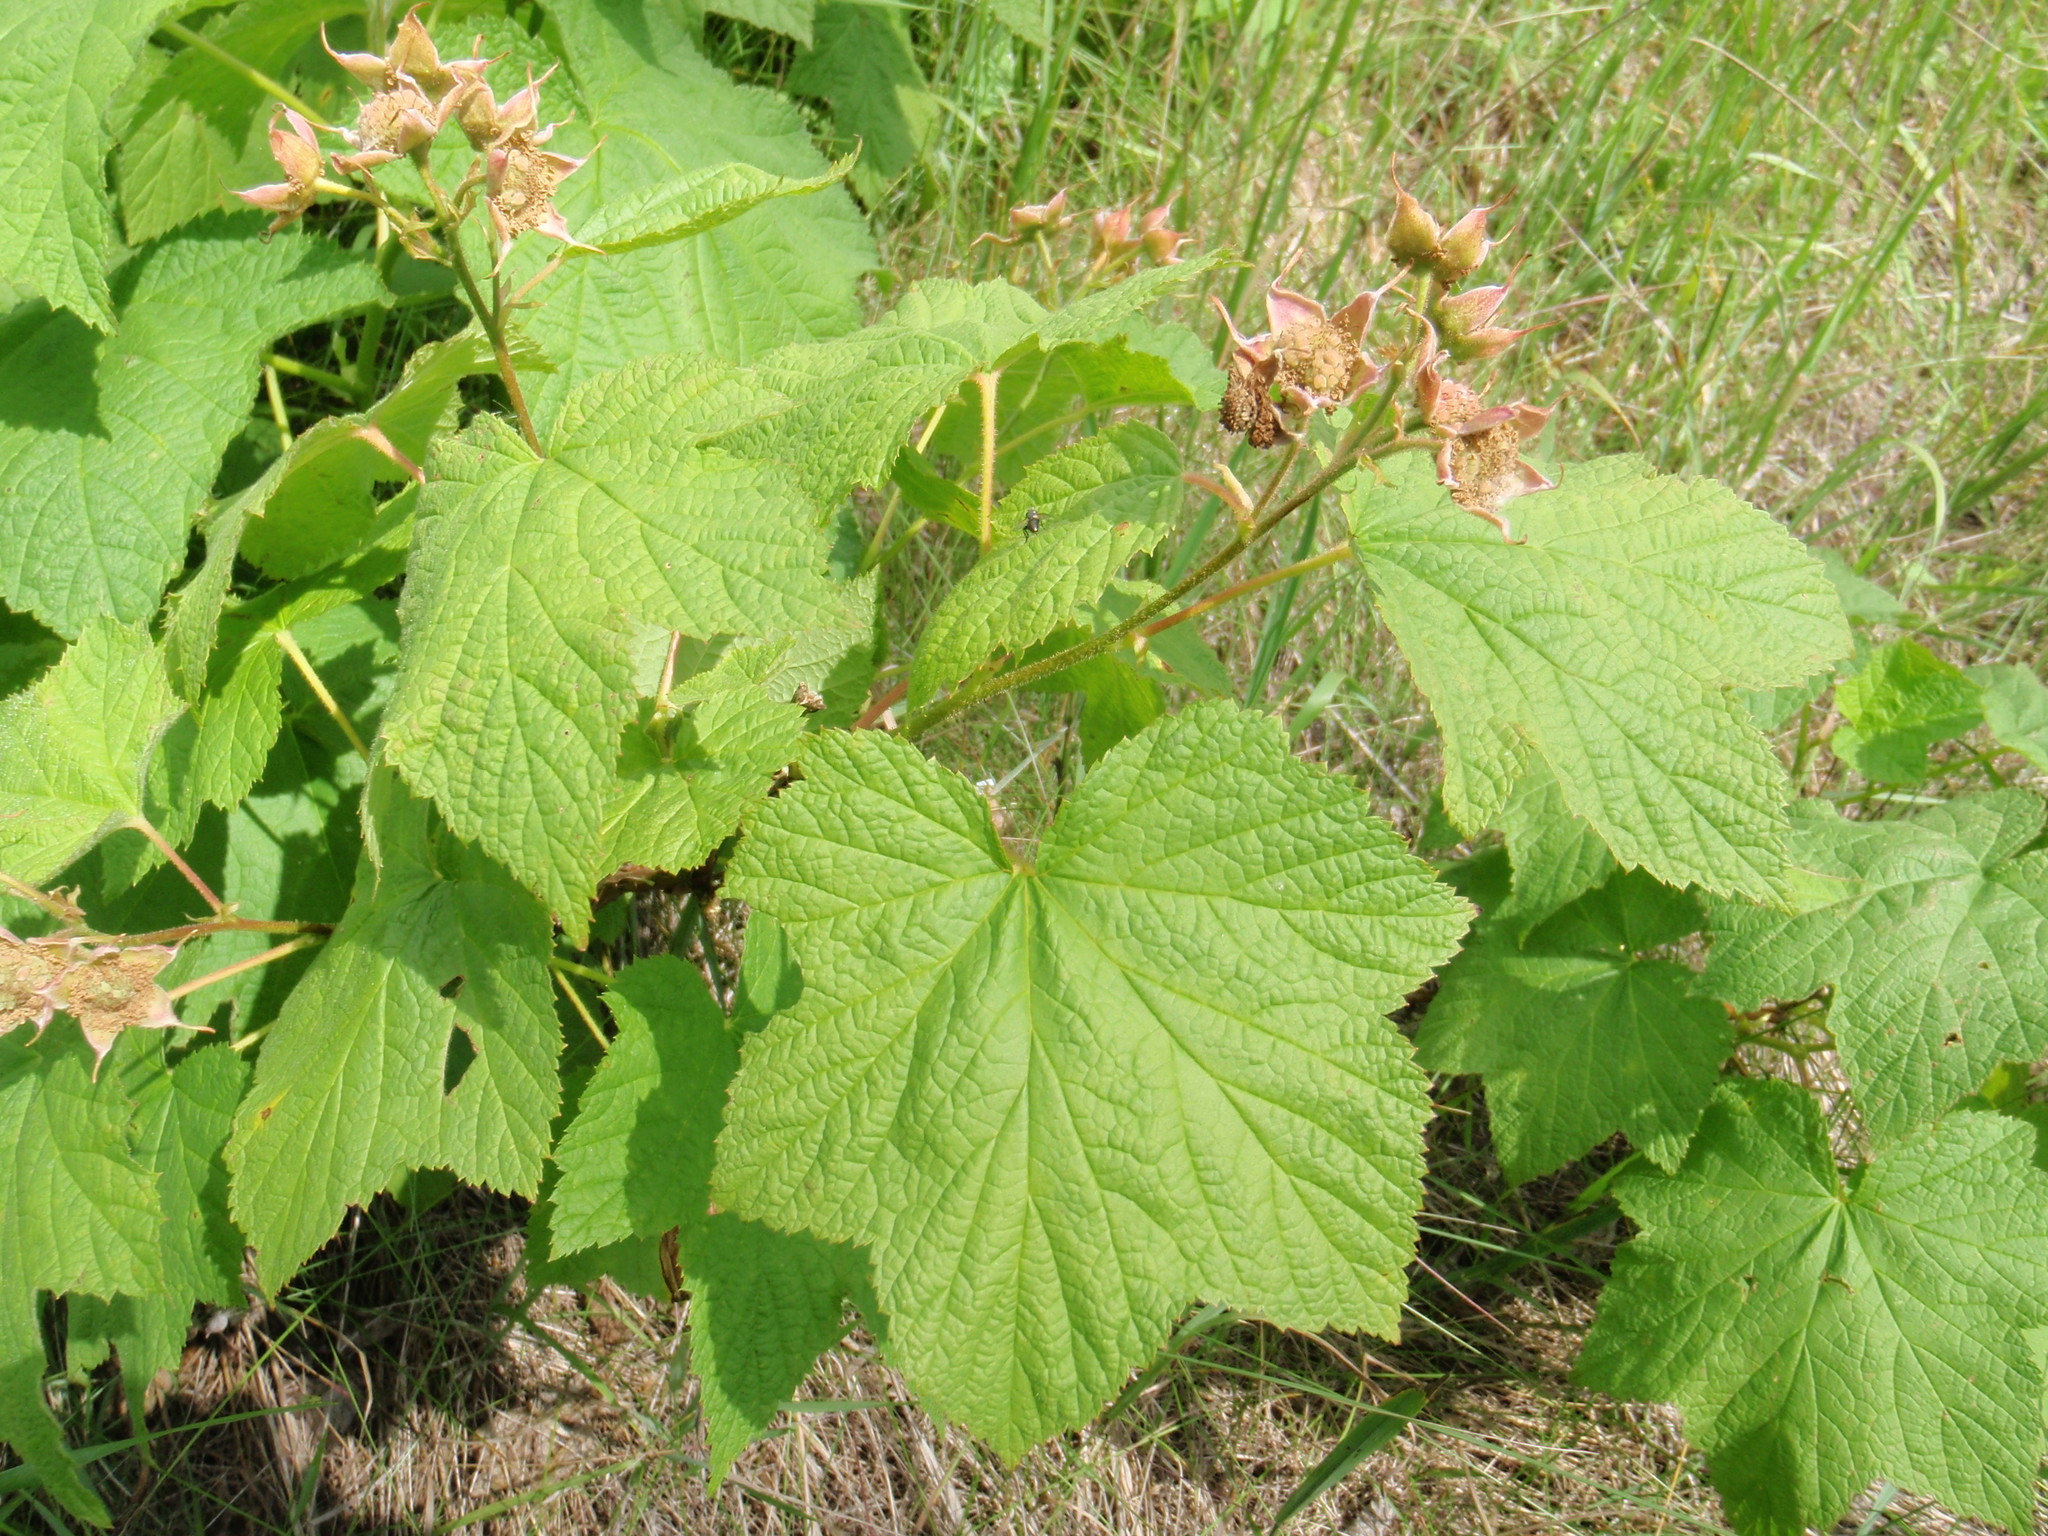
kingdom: Plantae
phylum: Tracheophyta
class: Magnoliopsida
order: Rosales
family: Rosaceae
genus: Rubus
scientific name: Rubus parviflorus
